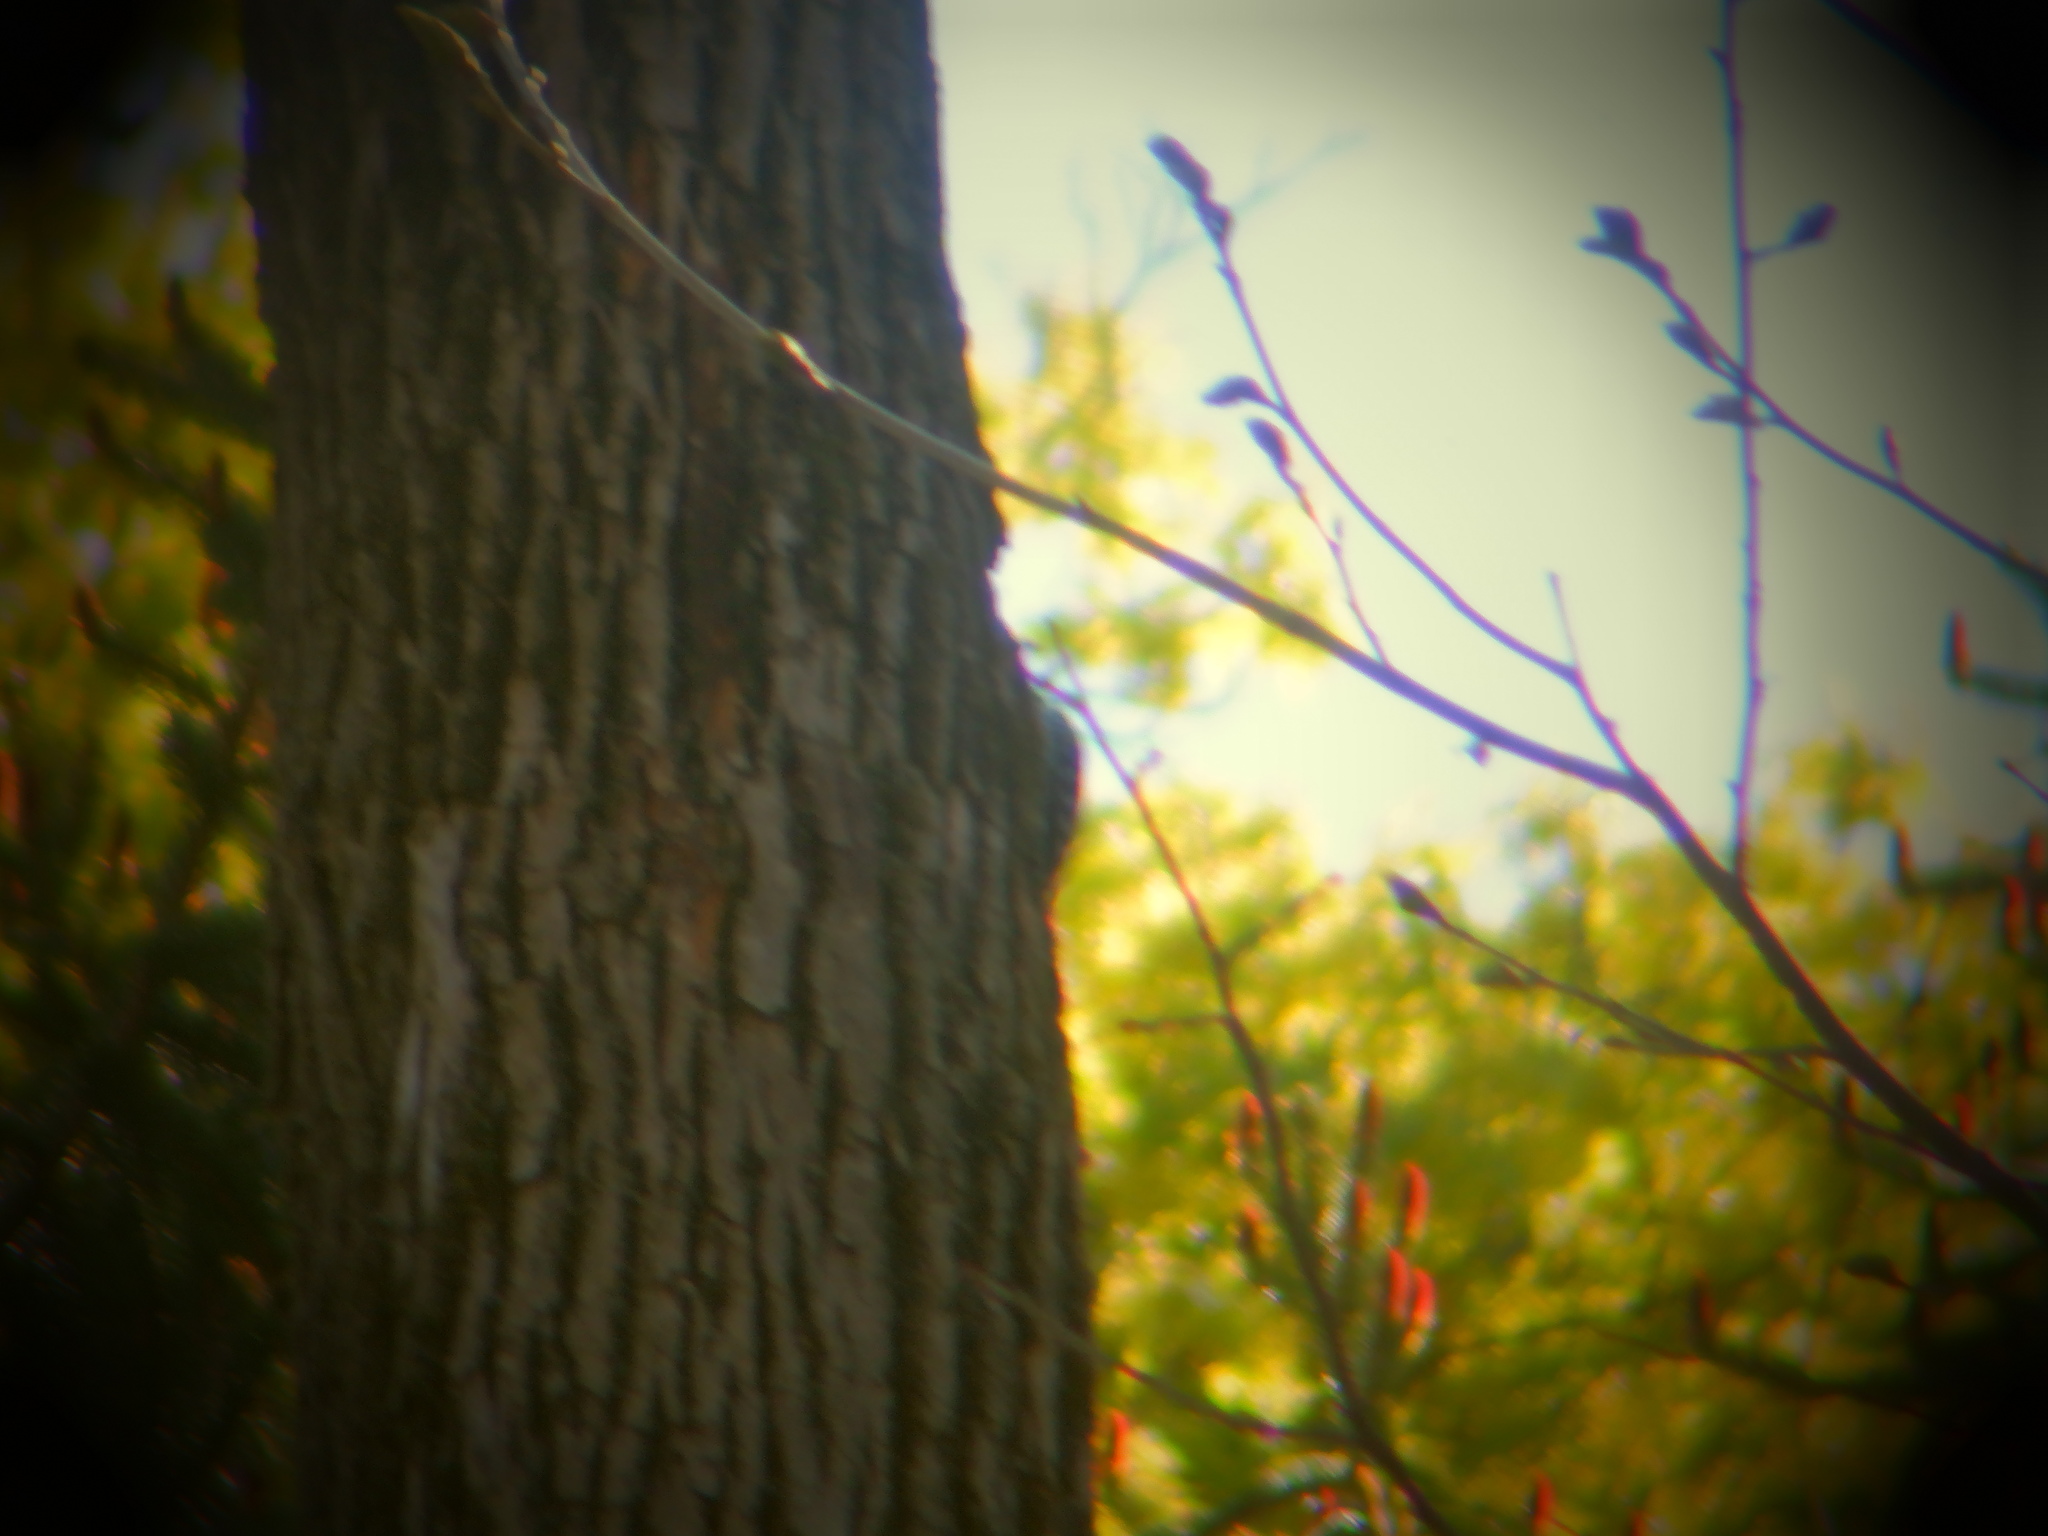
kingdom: Animalia
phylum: Chordata
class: Aves
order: Piciformes
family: Picidae
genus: Leuconotopicus
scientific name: Leuconotopicus villosus
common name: Hairy woodpecker
